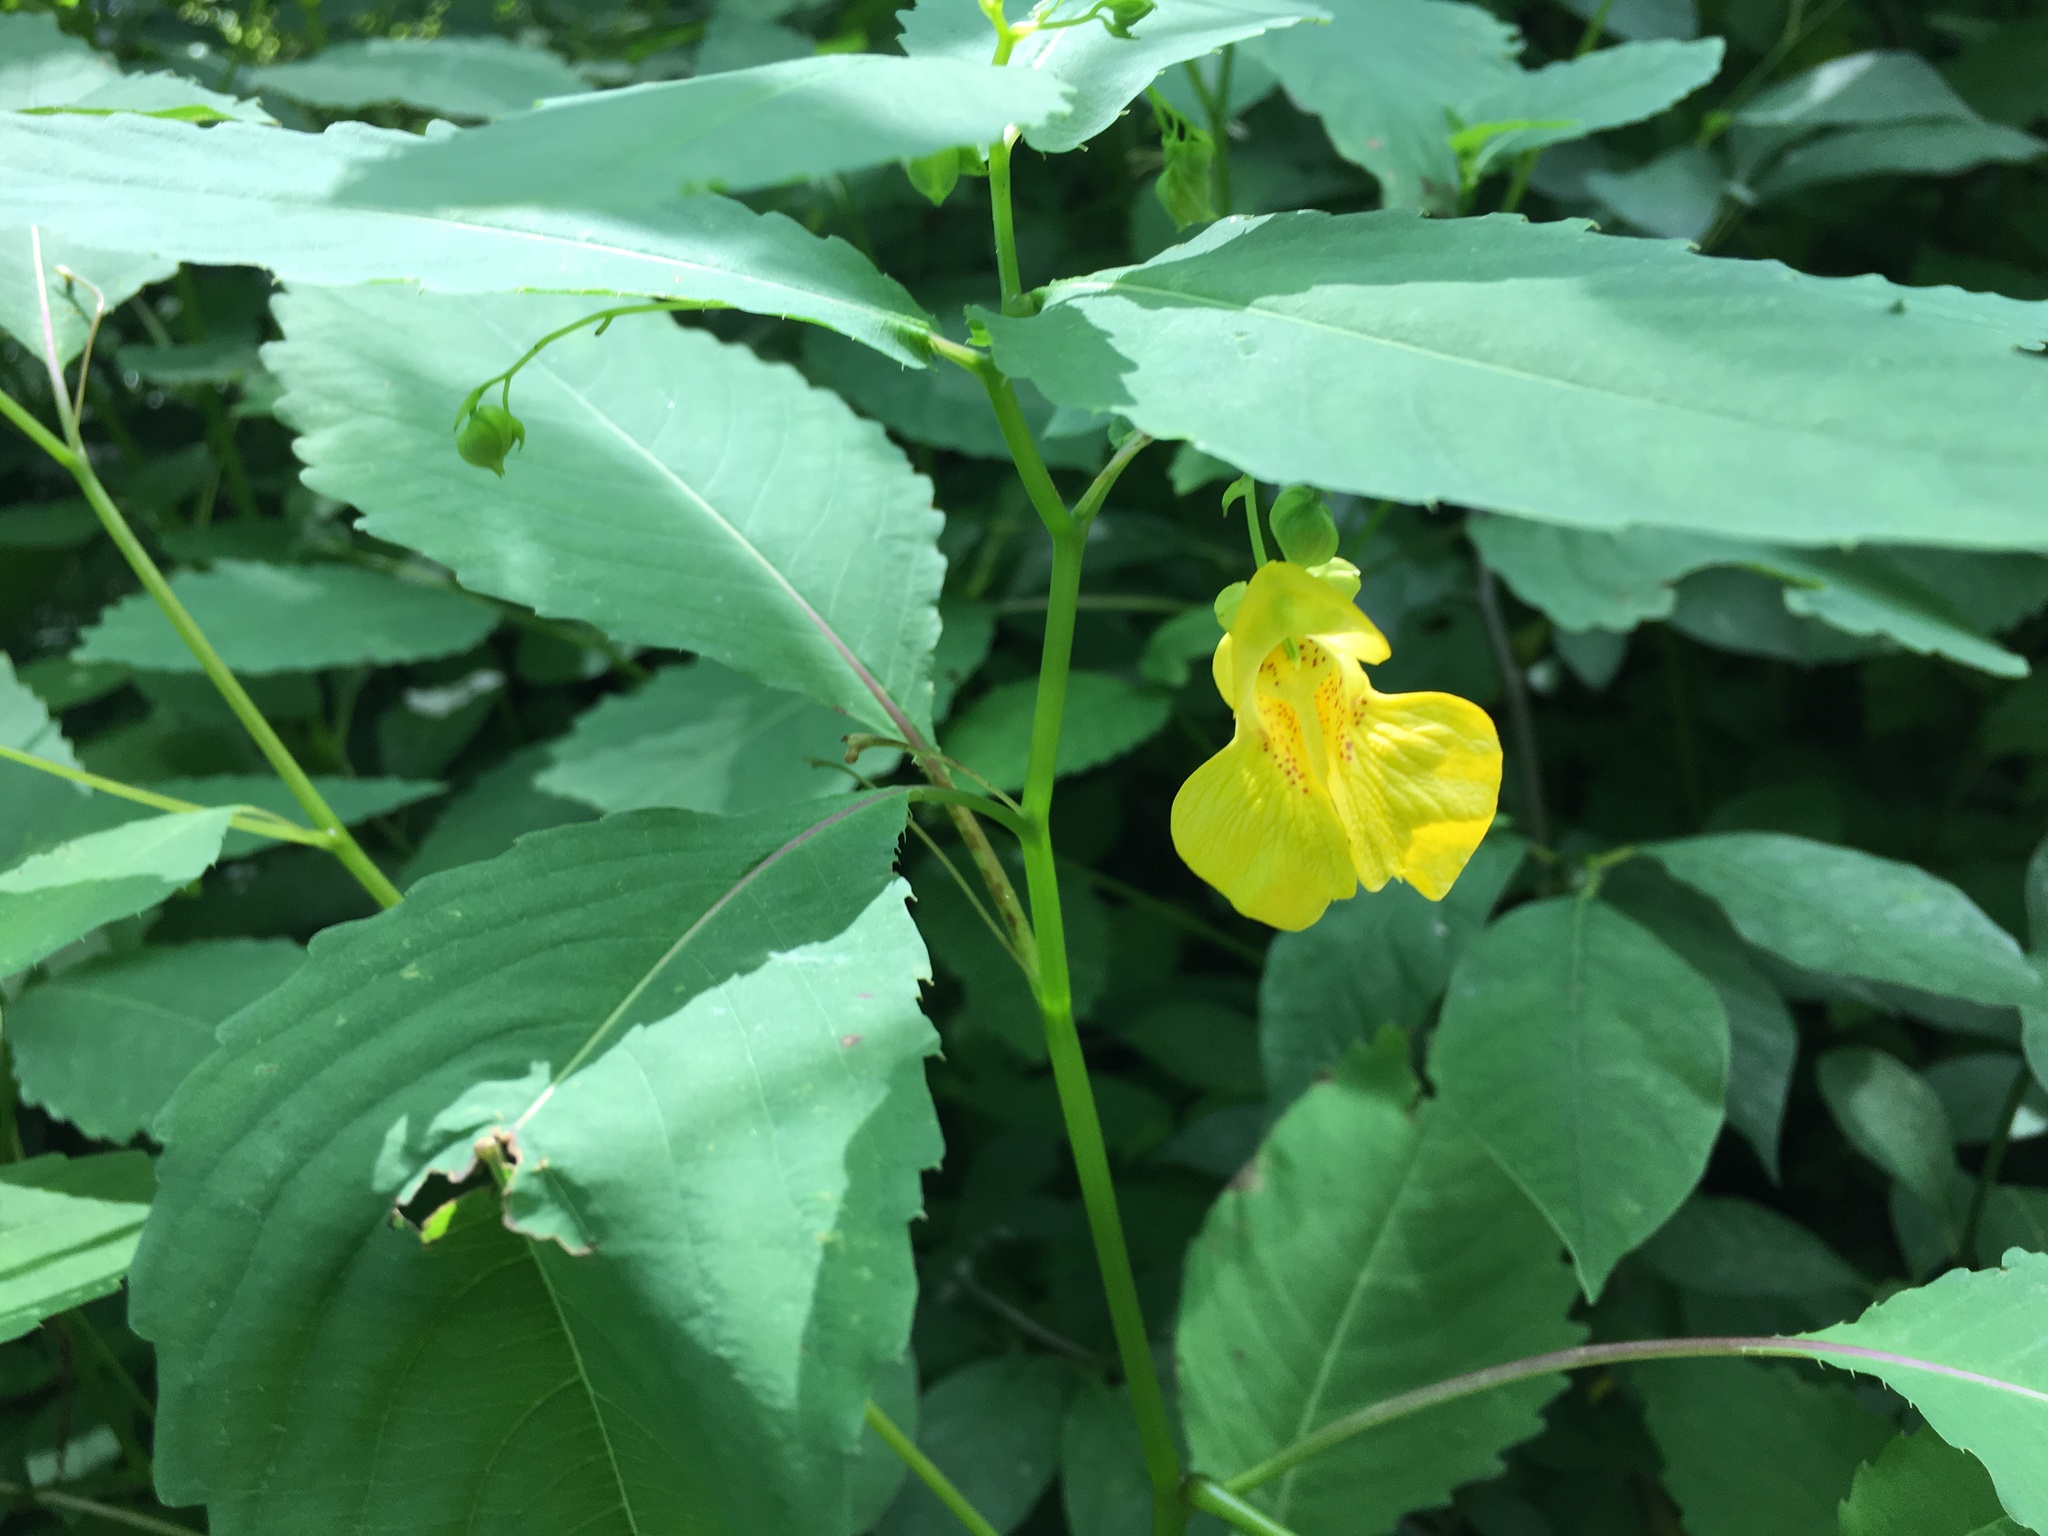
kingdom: Plantae
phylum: Tracheophyta
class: Magnoliopsida
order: Ericales
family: Balsaminaceae
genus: Impatiens
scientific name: Impatiens pallida
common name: Pale snapweed
